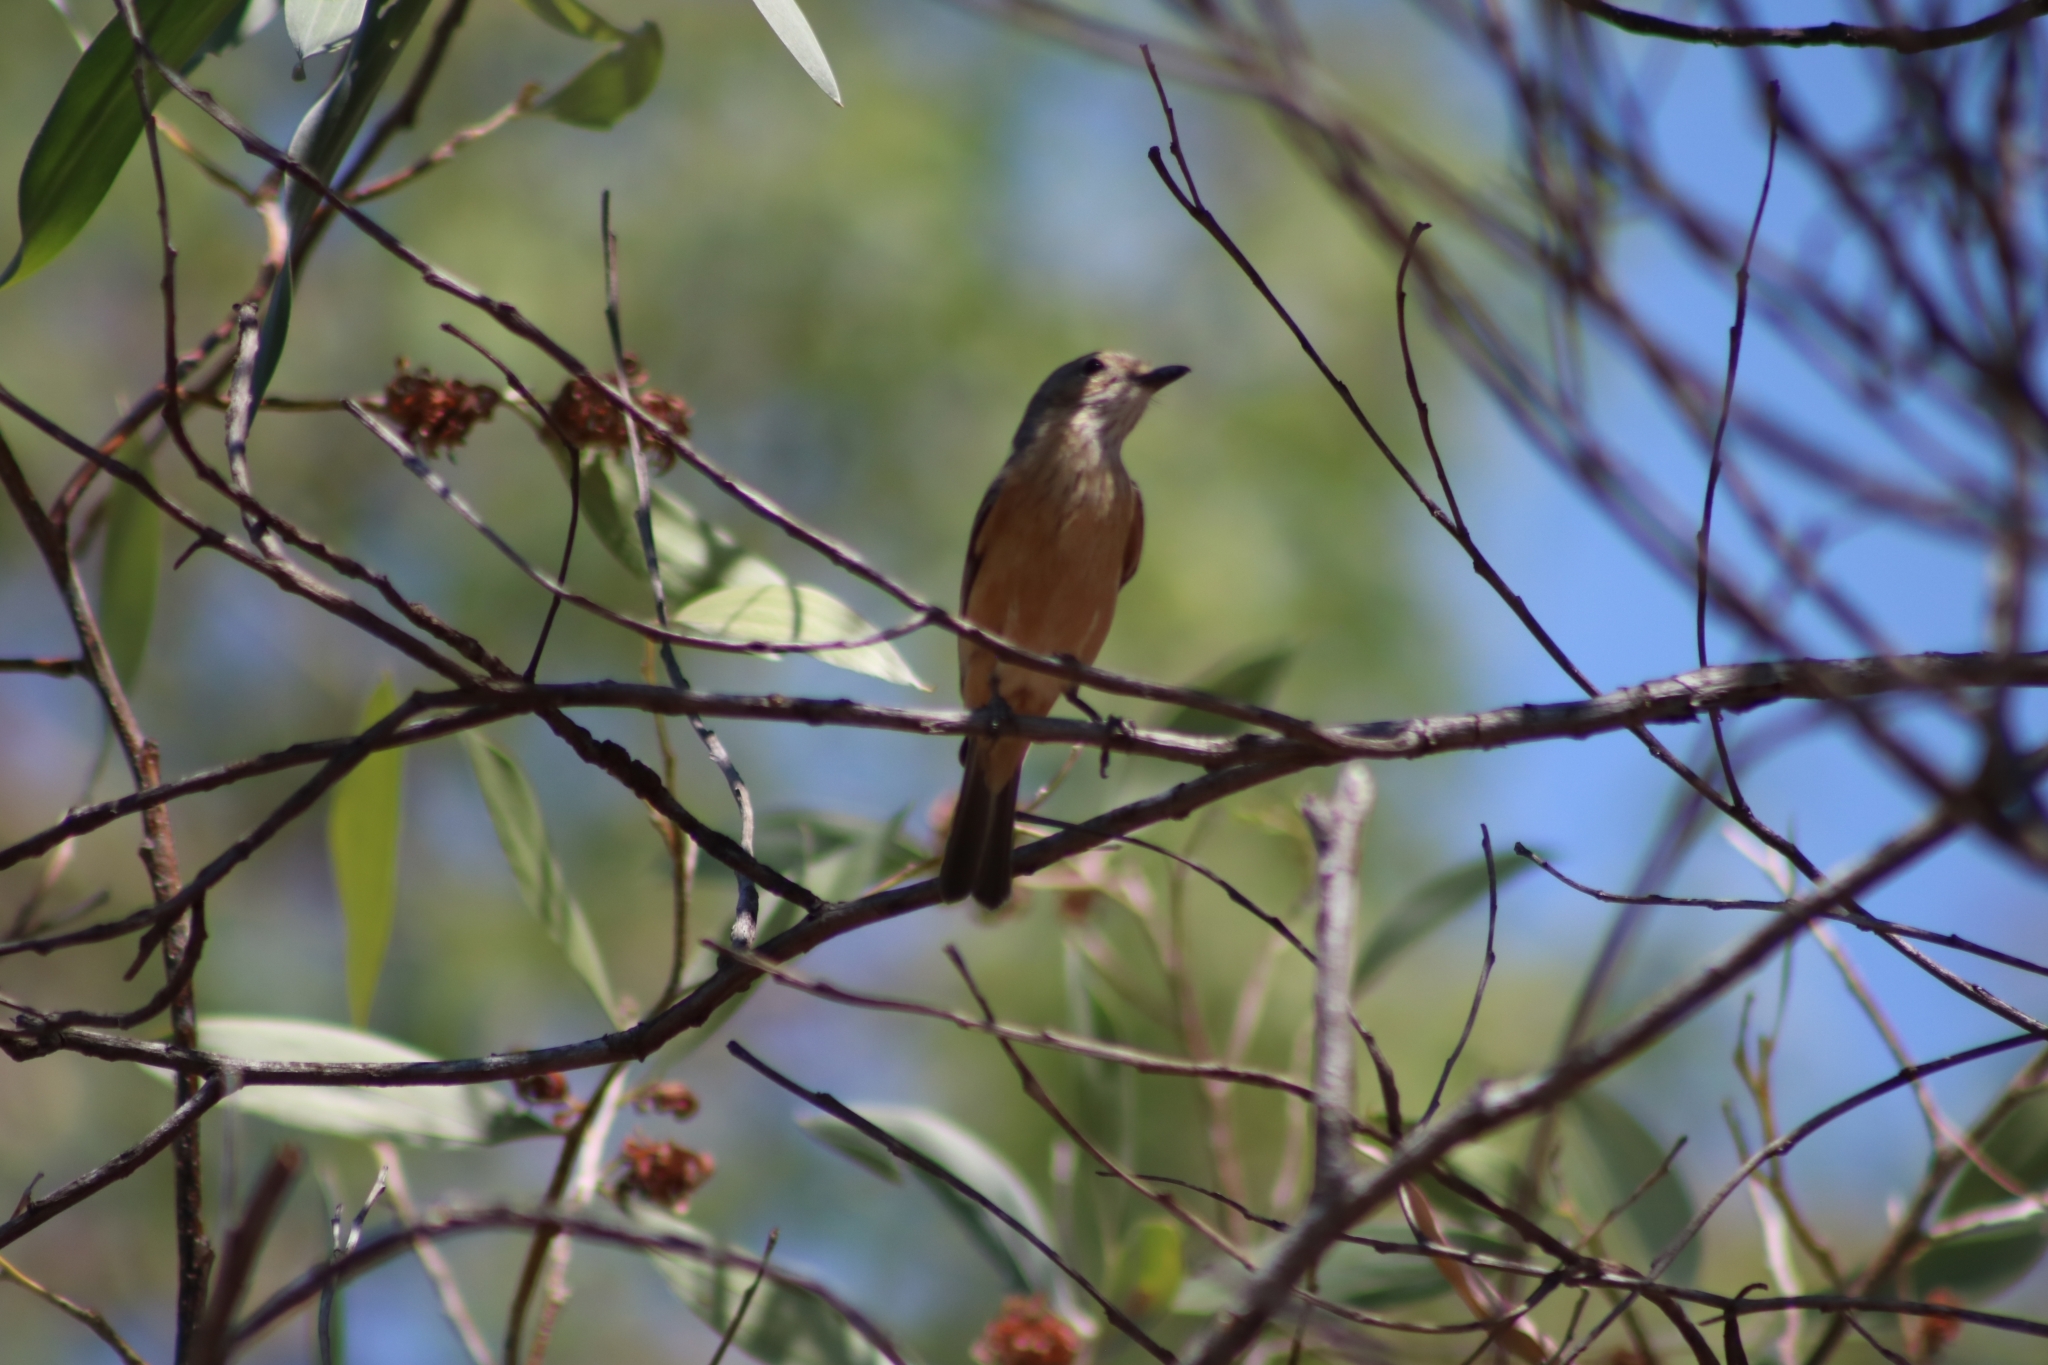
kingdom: Animalia
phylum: Chordata
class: Aves
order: Passeriformes
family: Pachycephalidae
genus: Pachycephala
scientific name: Pachycephala rufiventris
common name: Rufous whistler
